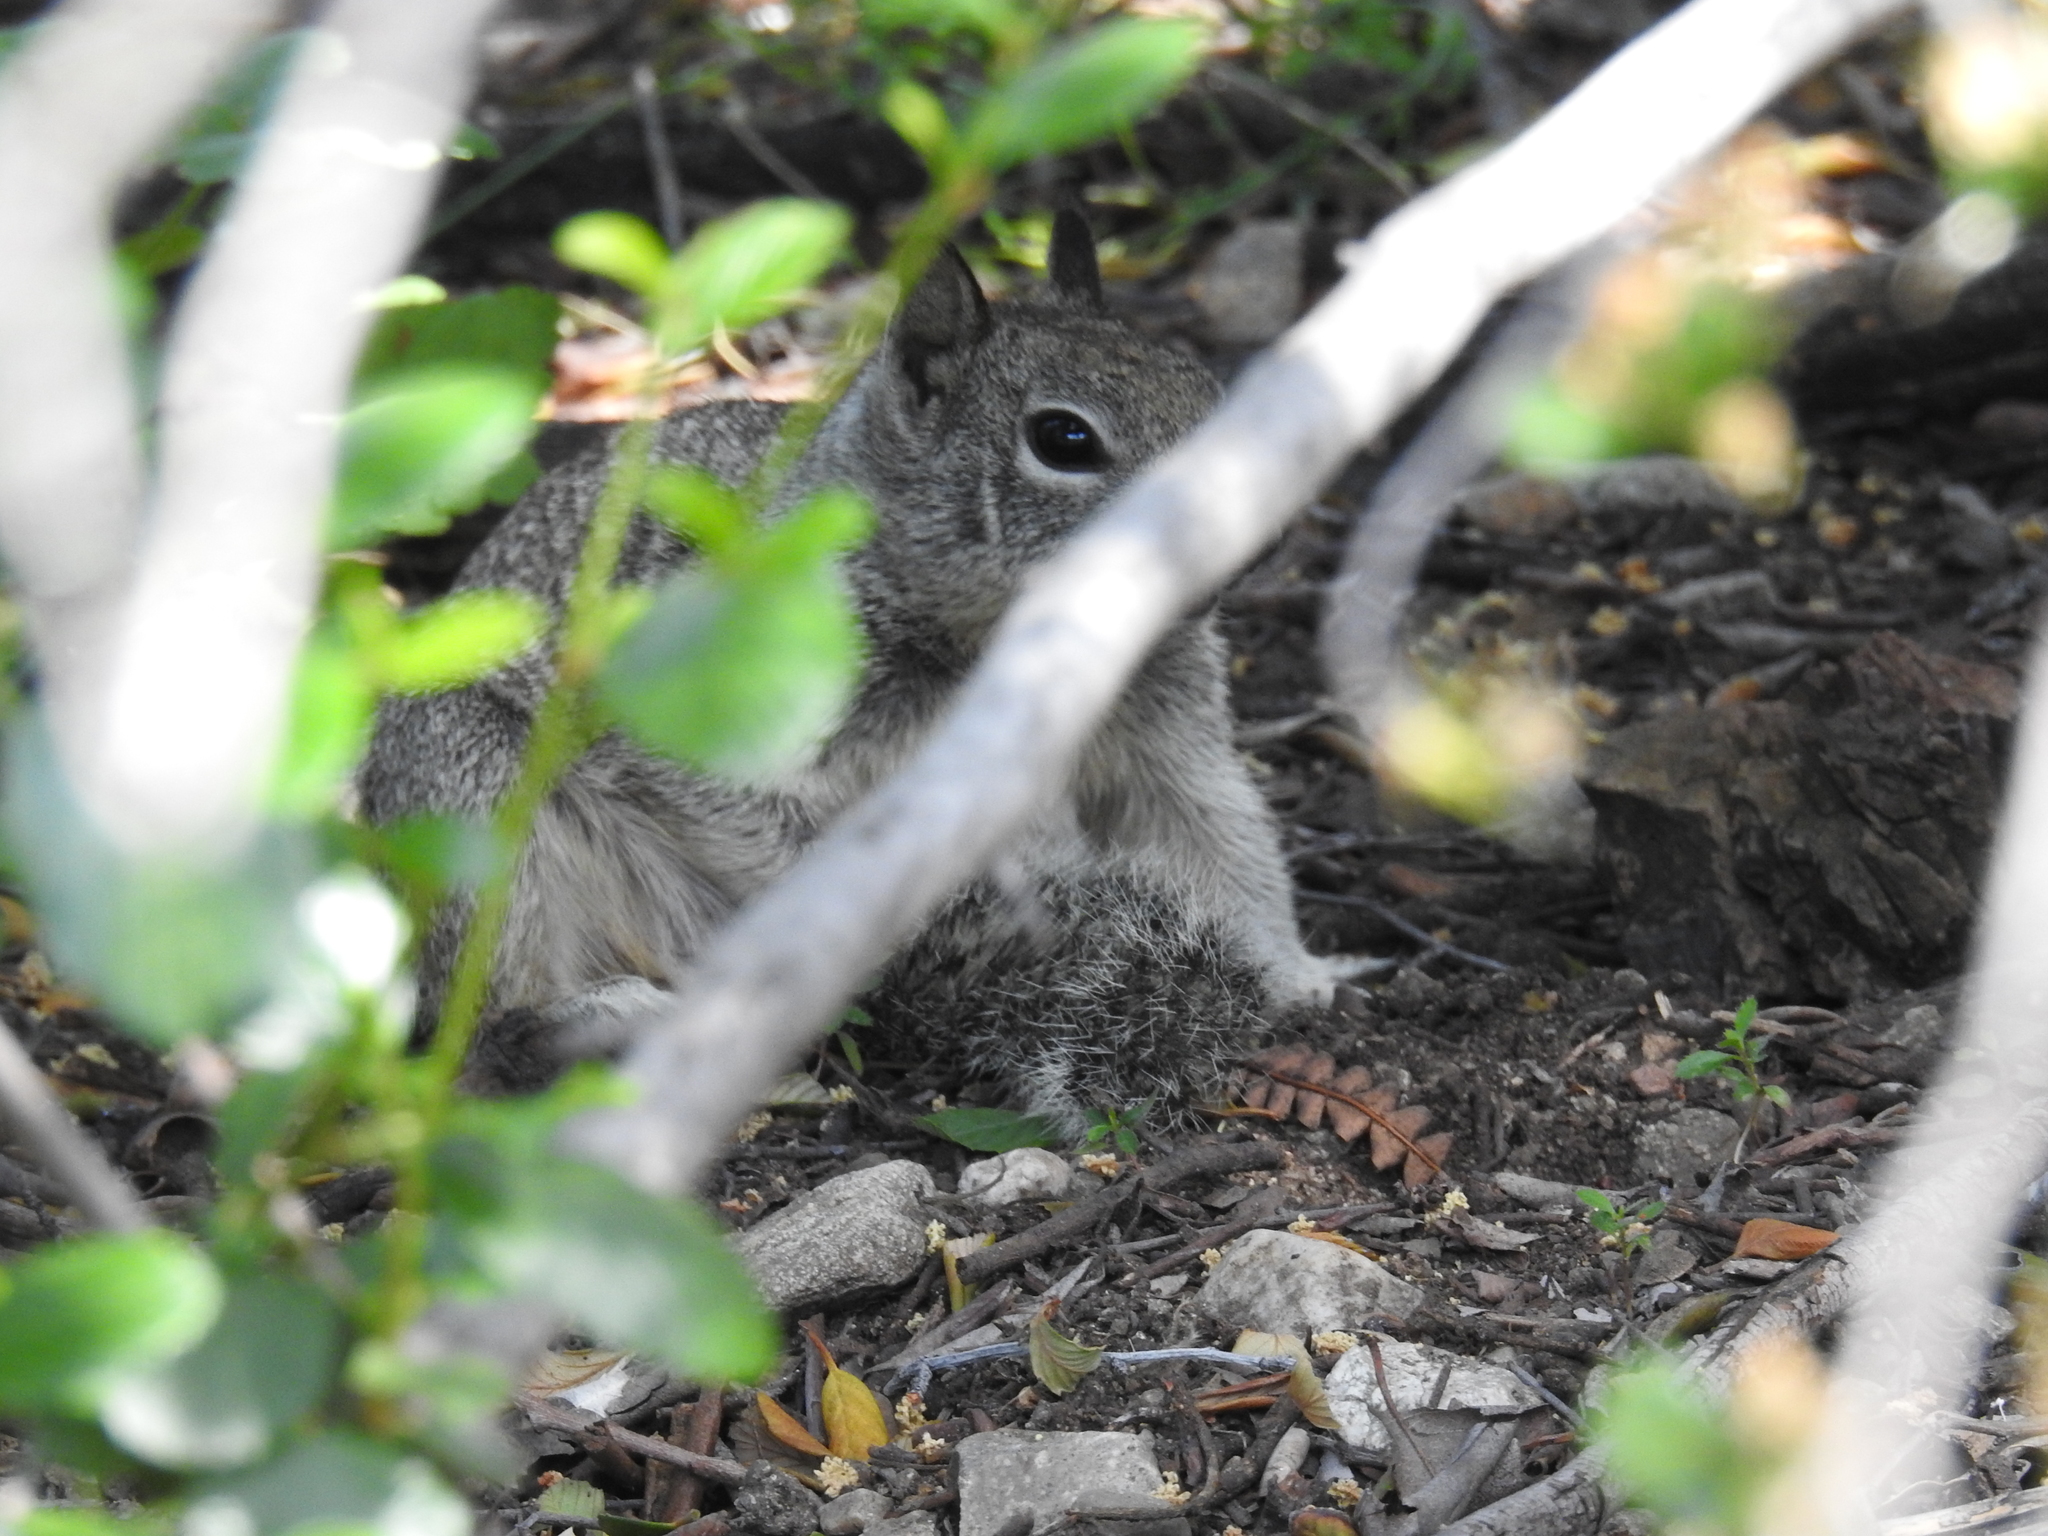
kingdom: Animalia
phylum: Chordata
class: Mammalia
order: Rodentia
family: Sciuridae
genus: Otospermophilus
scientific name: Otospermophilus beecheyi
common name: California ground squirrel
